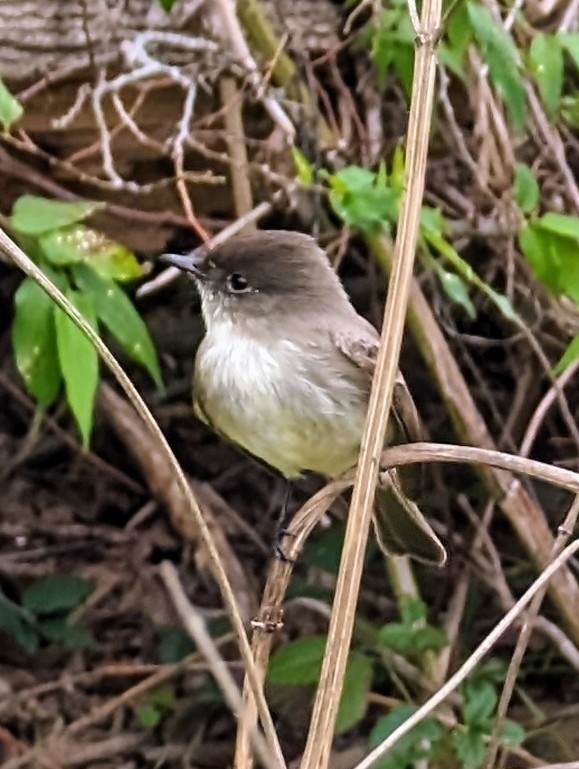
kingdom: Animalia
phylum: Chordata
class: Aves
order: Passeriformes
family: Tyrannidae
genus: Sayornis
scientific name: Sayornis phoebe
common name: Eastern phoebe
